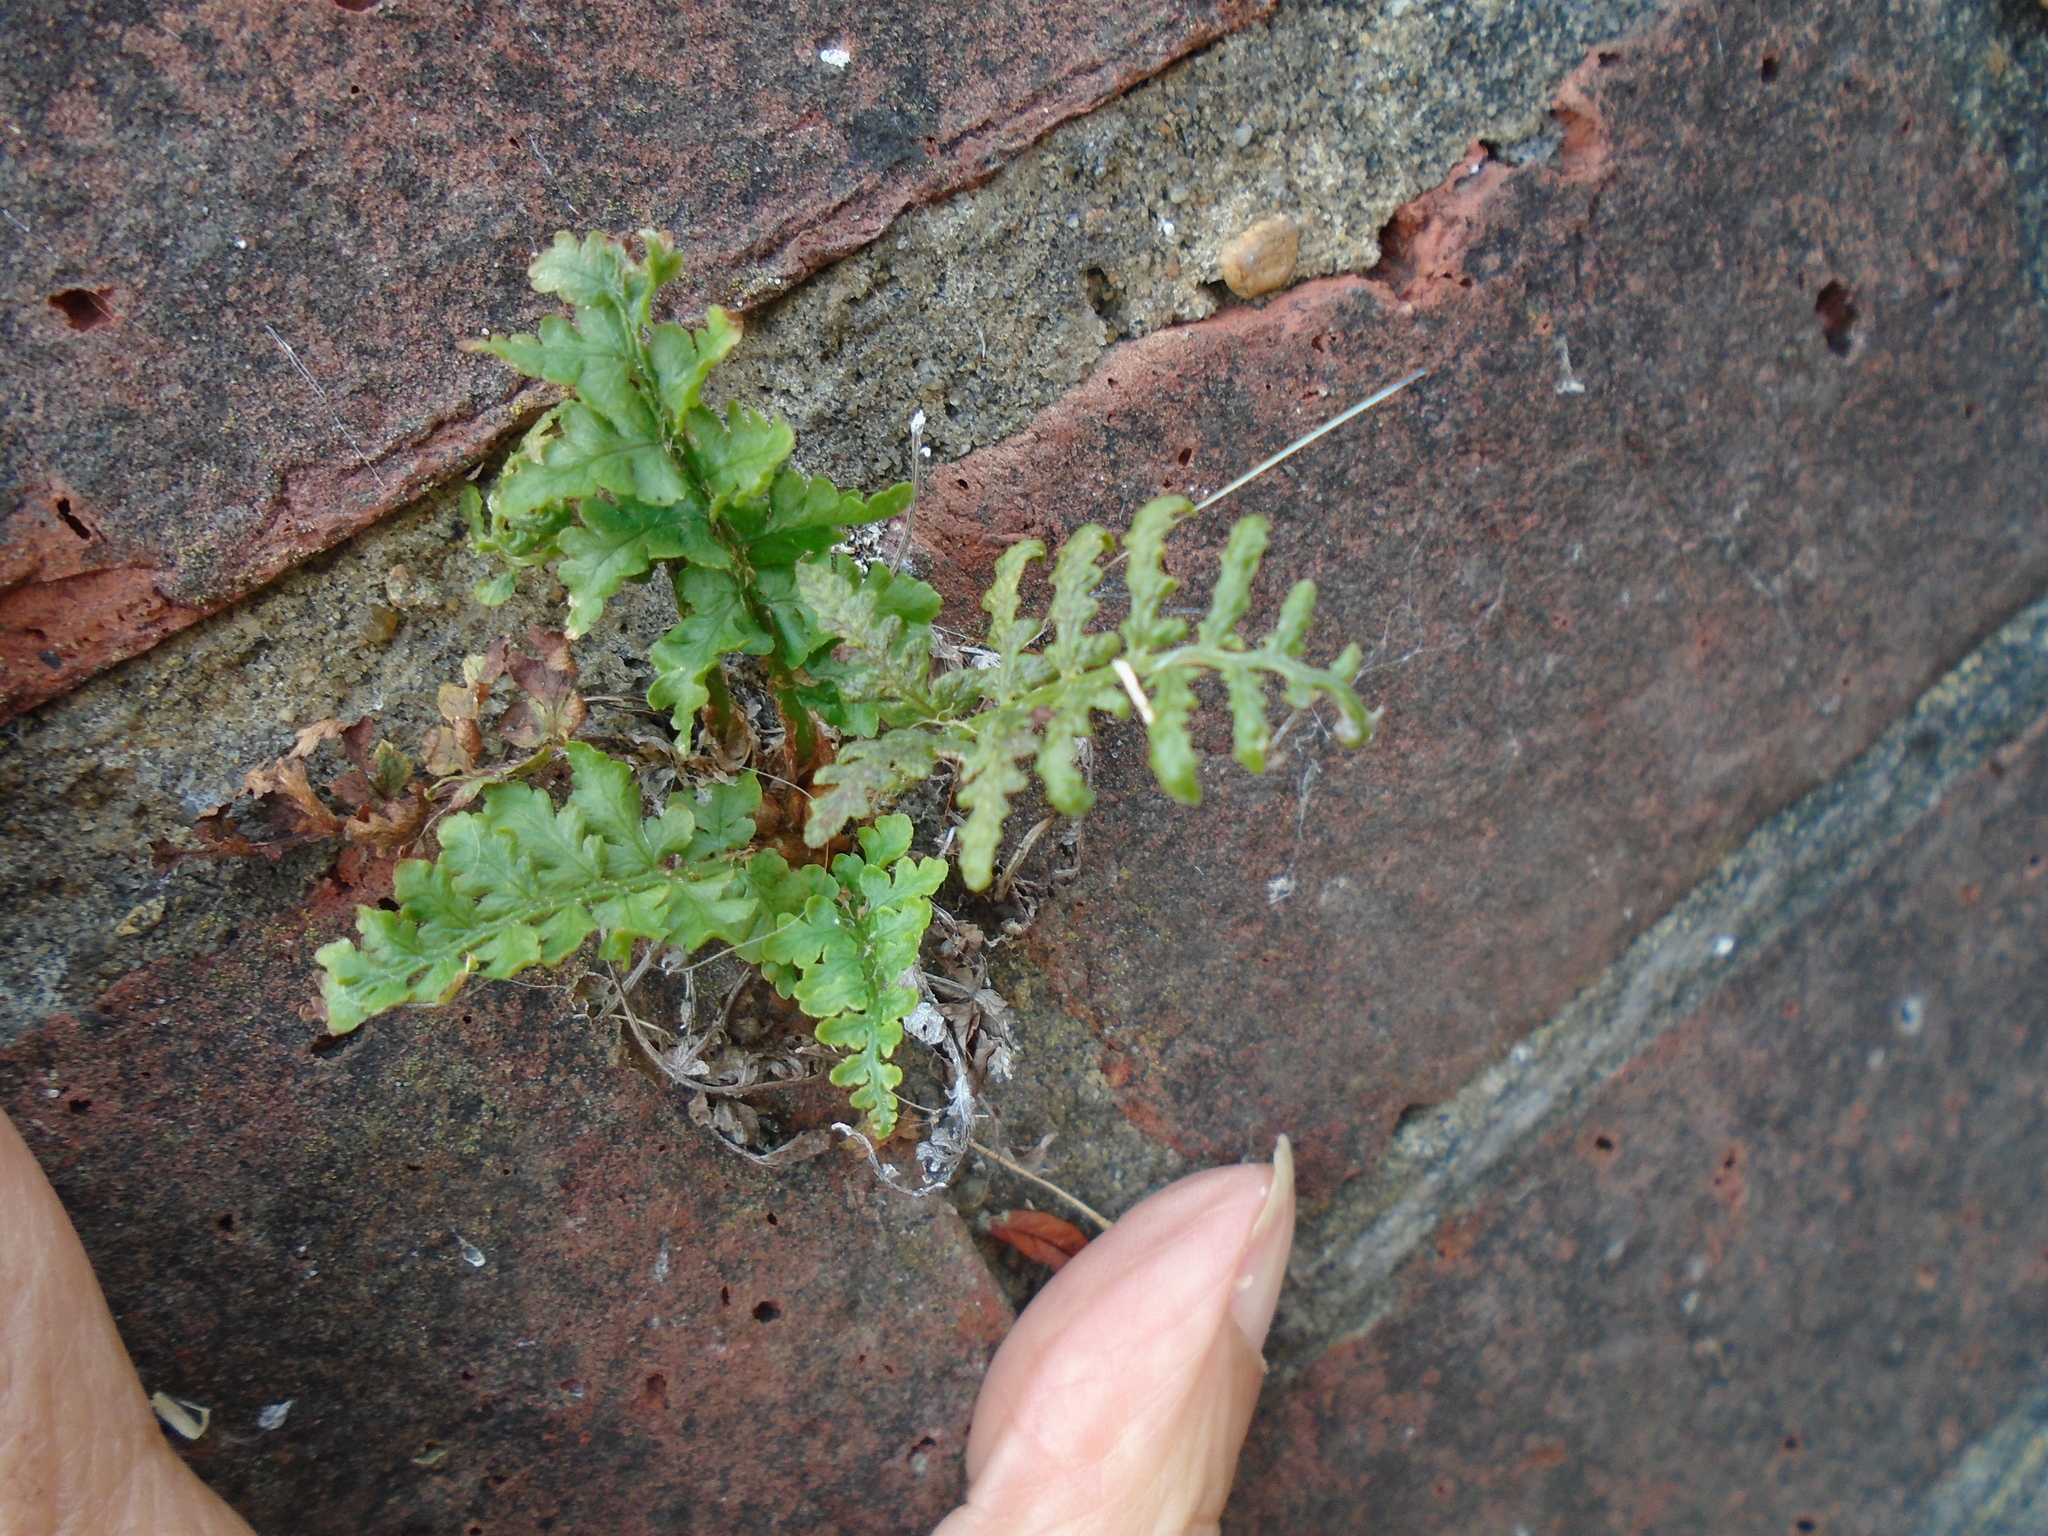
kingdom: Plantae
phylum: Tracheophyta
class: Polypodiopsida
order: Polypodiales
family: Aspleniaceae
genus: Asplenium
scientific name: Asplenium adiantum-nigrum
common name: Black spleenwort
